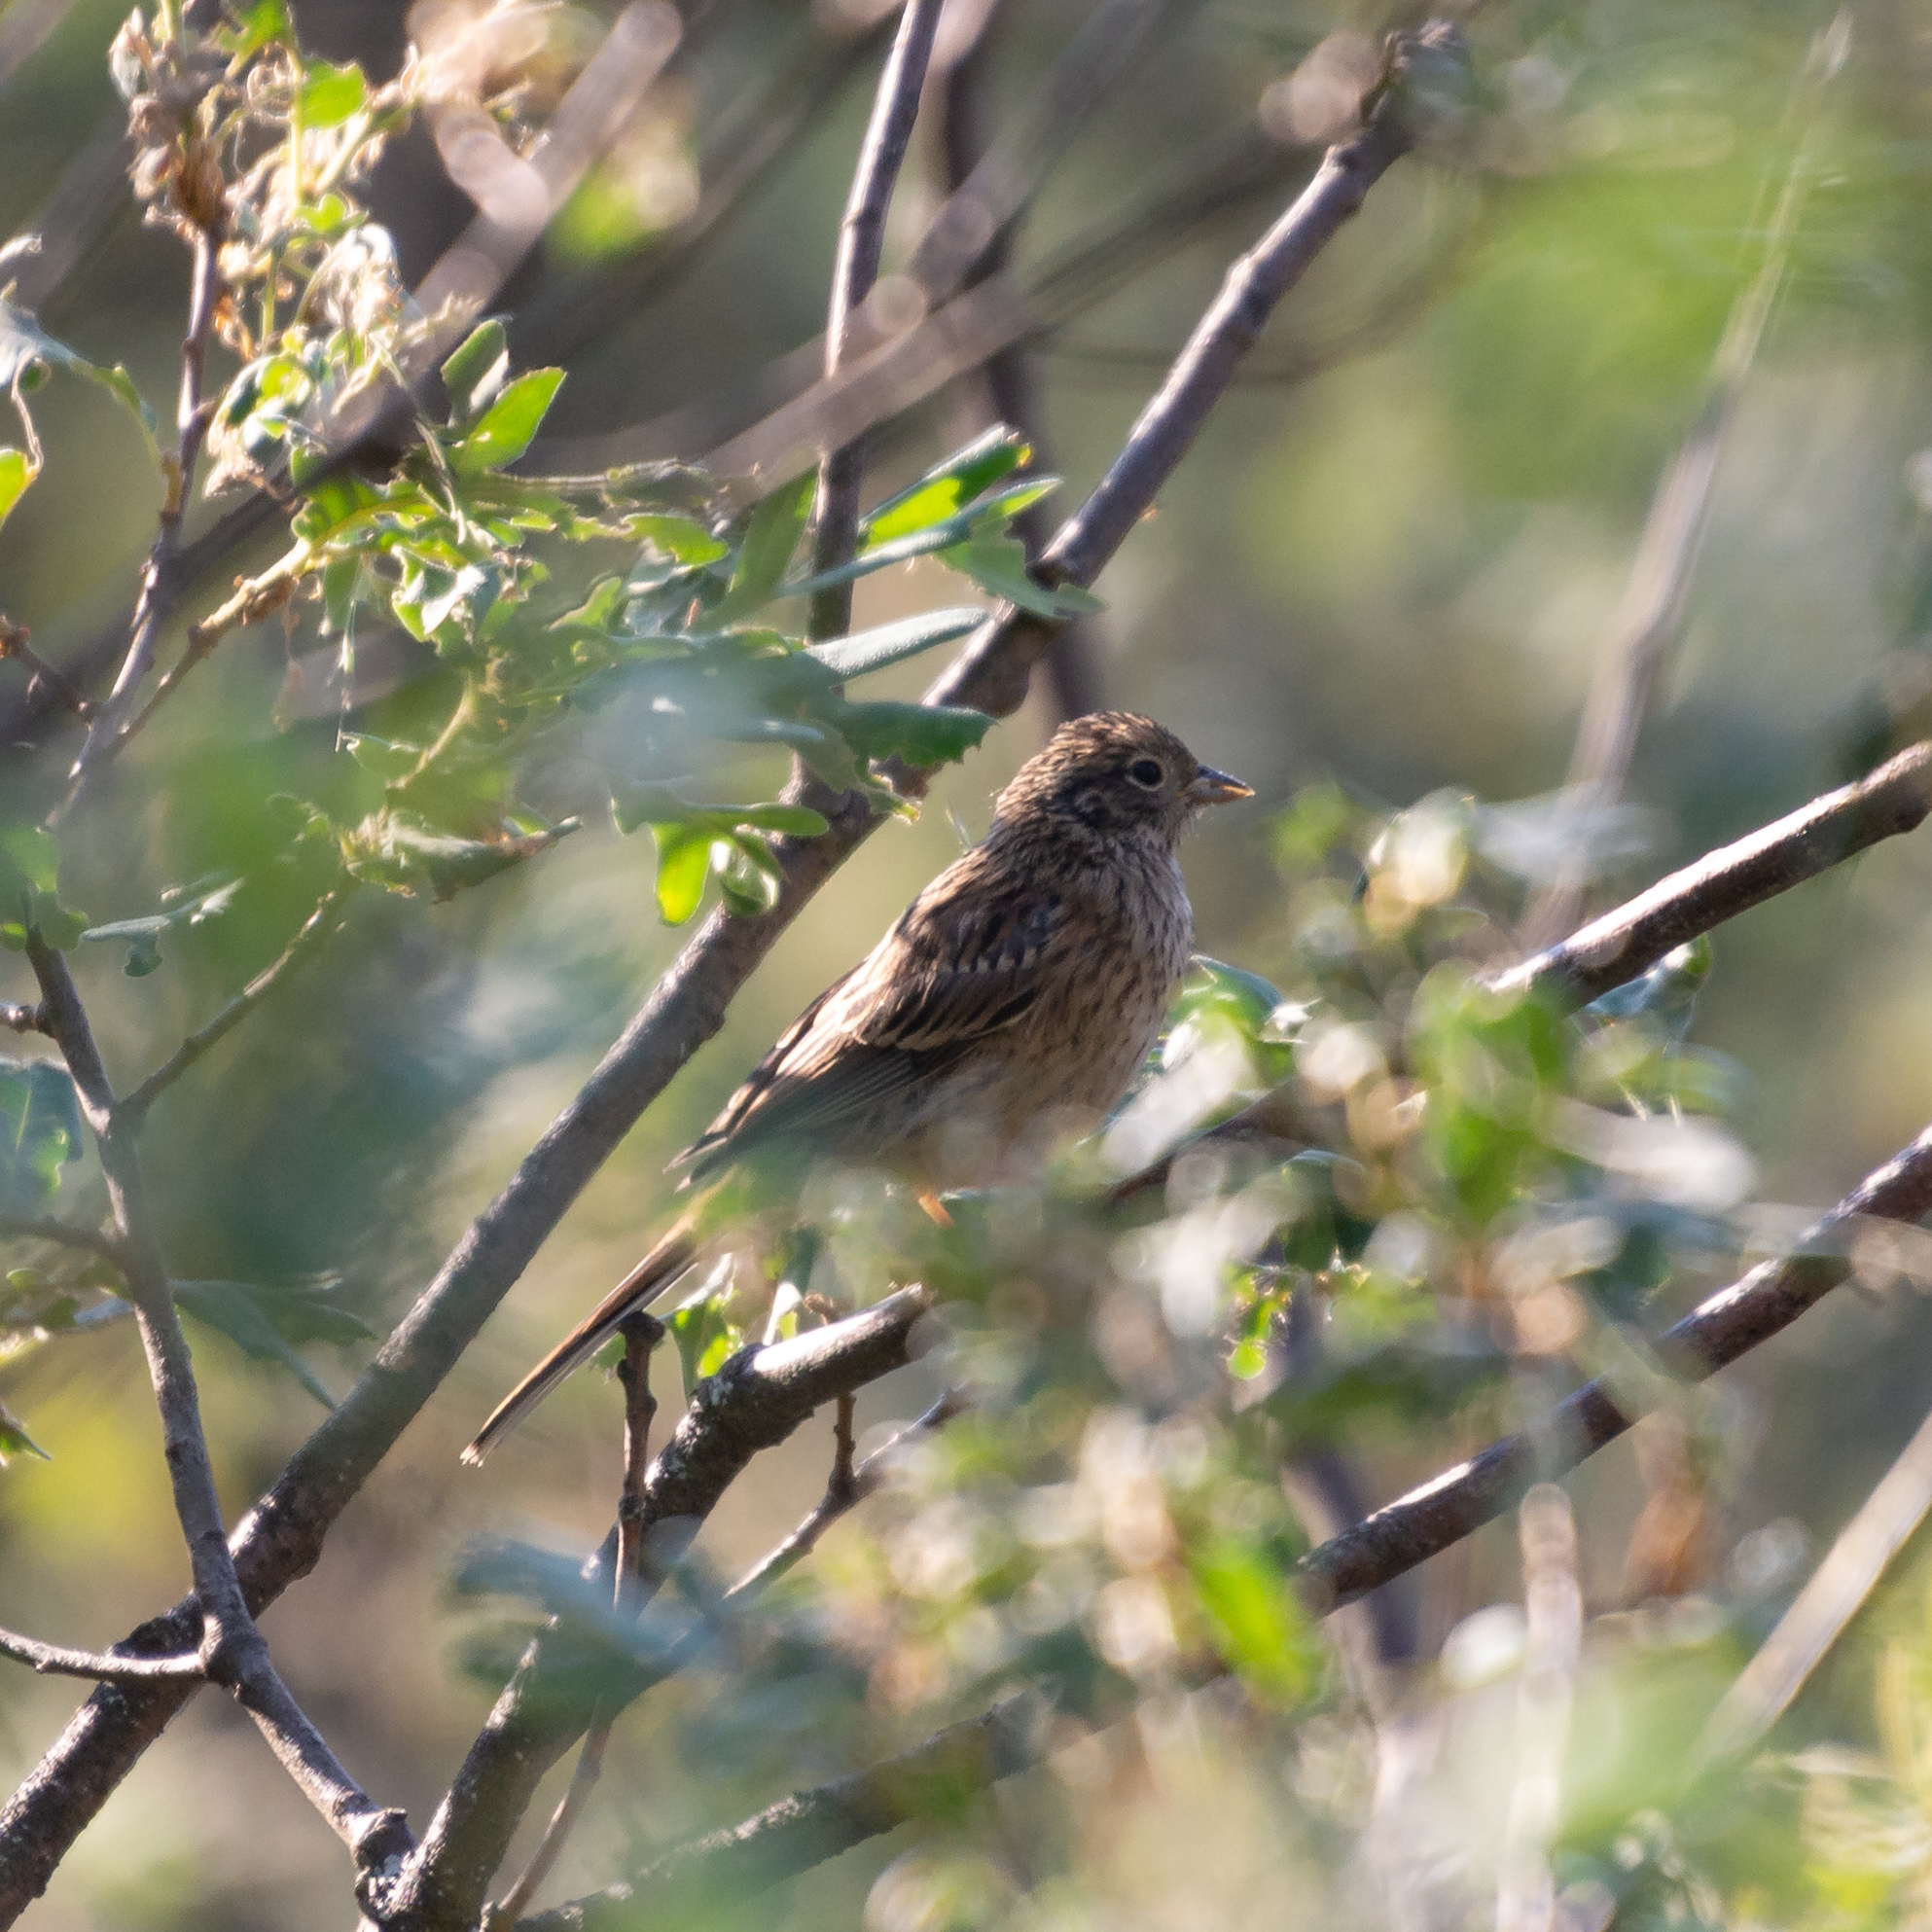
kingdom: Animalia
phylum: Chordata
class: Aves
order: Passeriformes
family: Emberizidae
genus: Emberiza
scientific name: Emberiza cia
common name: Rock bunting
